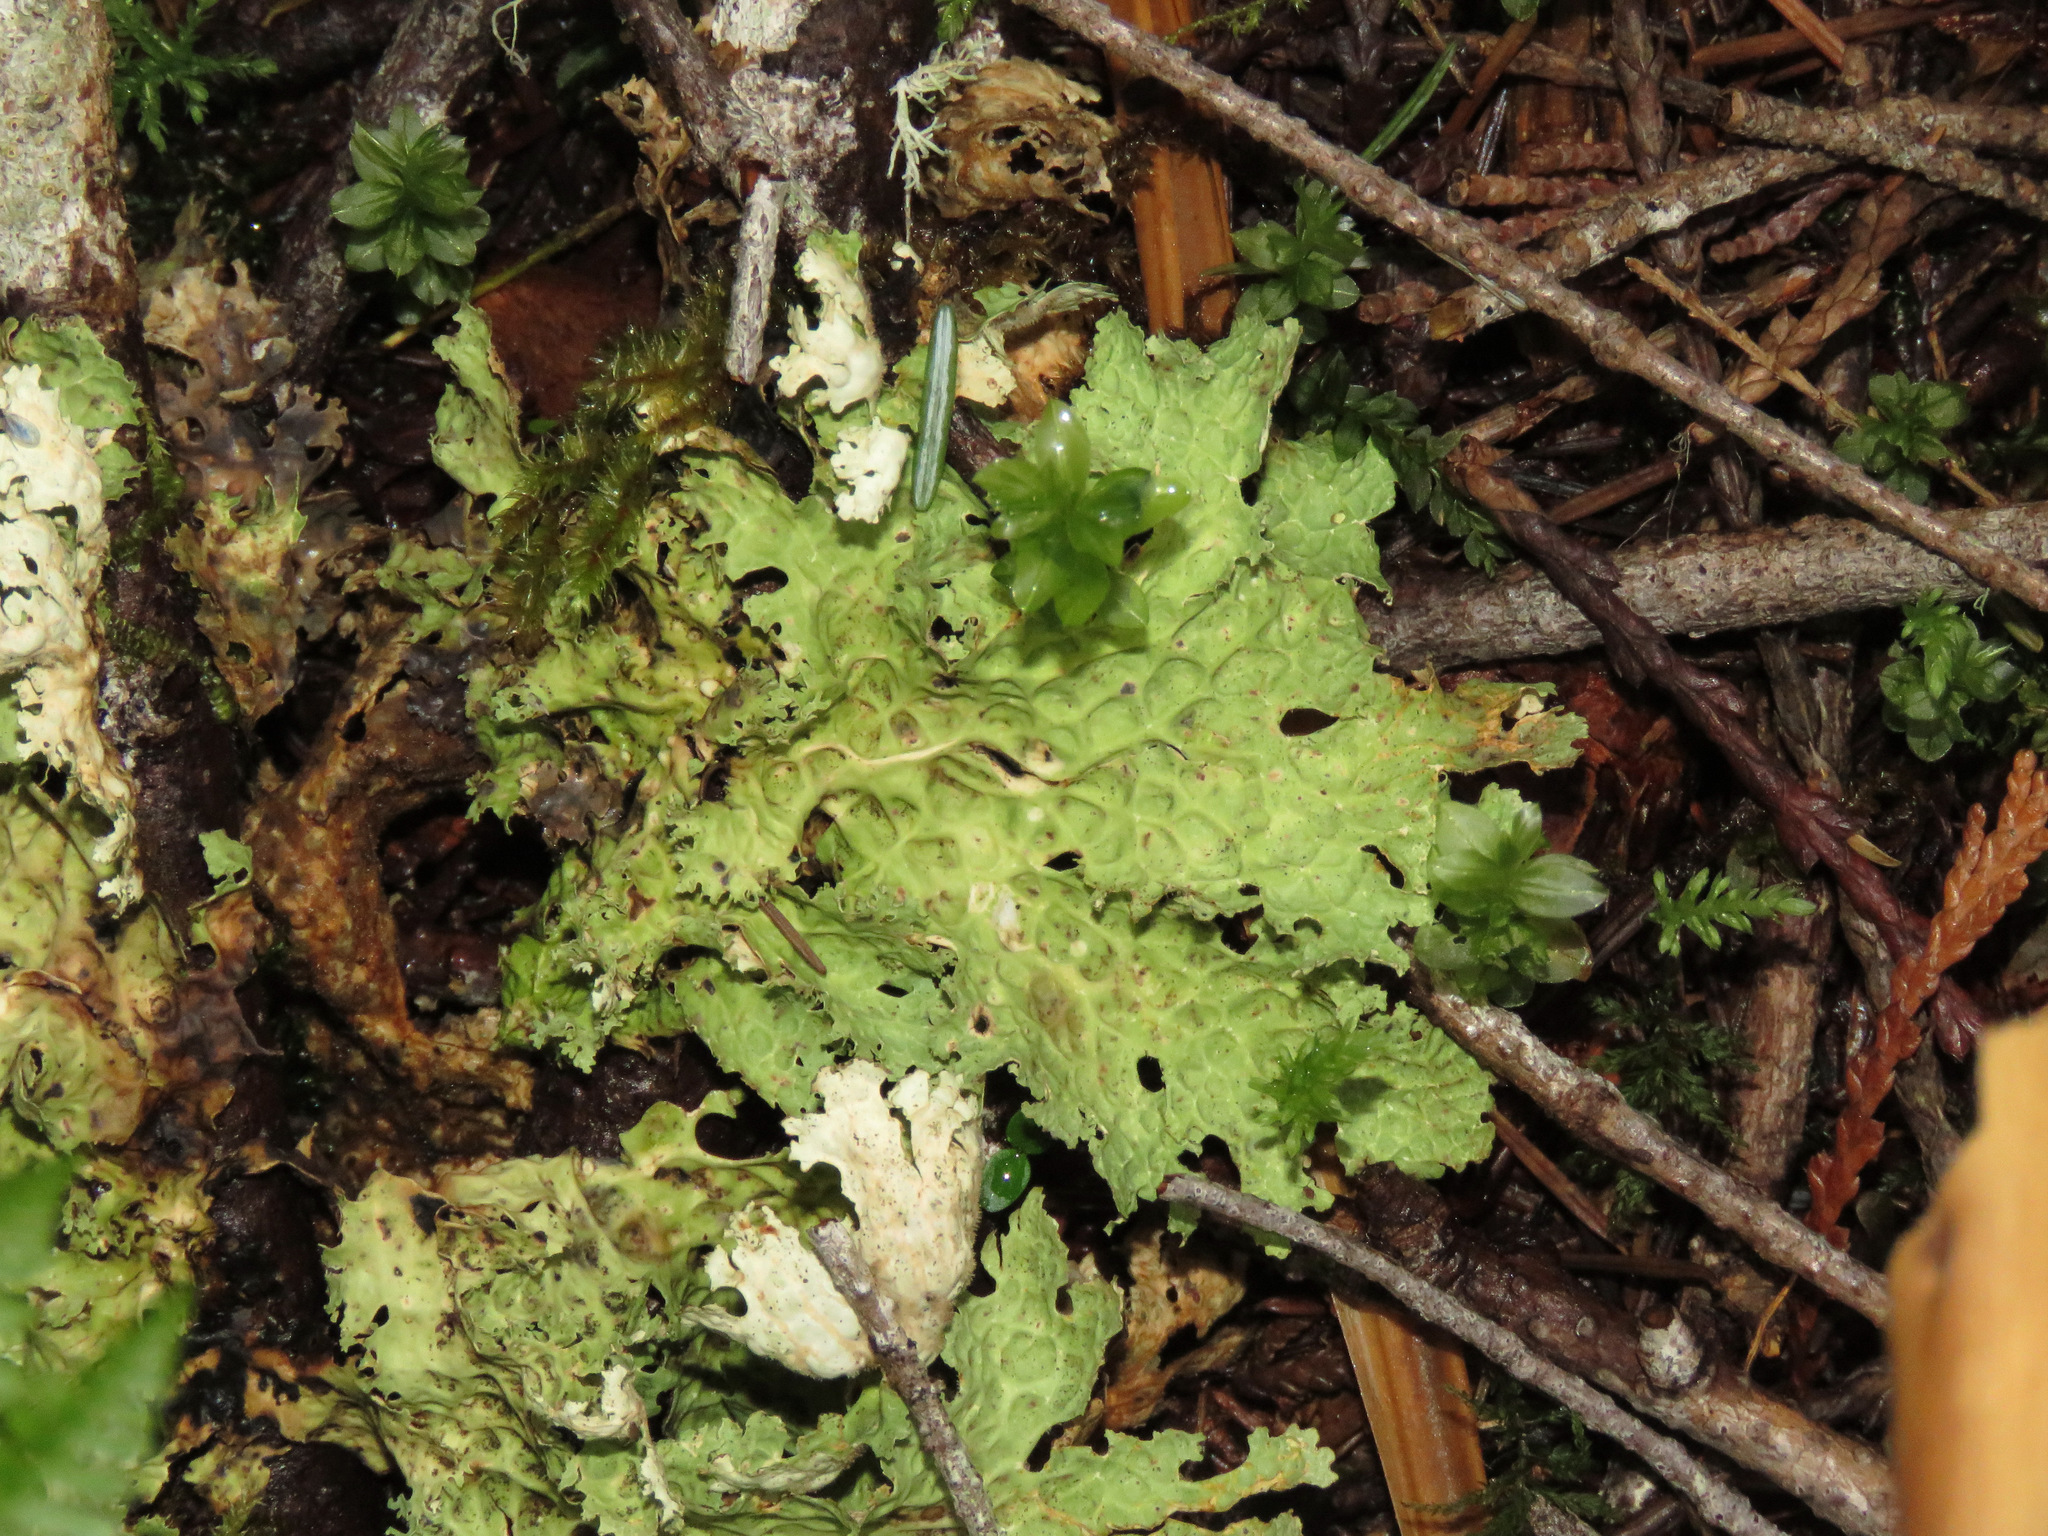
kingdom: Fungi
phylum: Ascomycota
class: Lecanoromycetes
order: Peltigerales
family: Lobariaceae
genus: Lobaria
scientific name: Lobaria oregana
